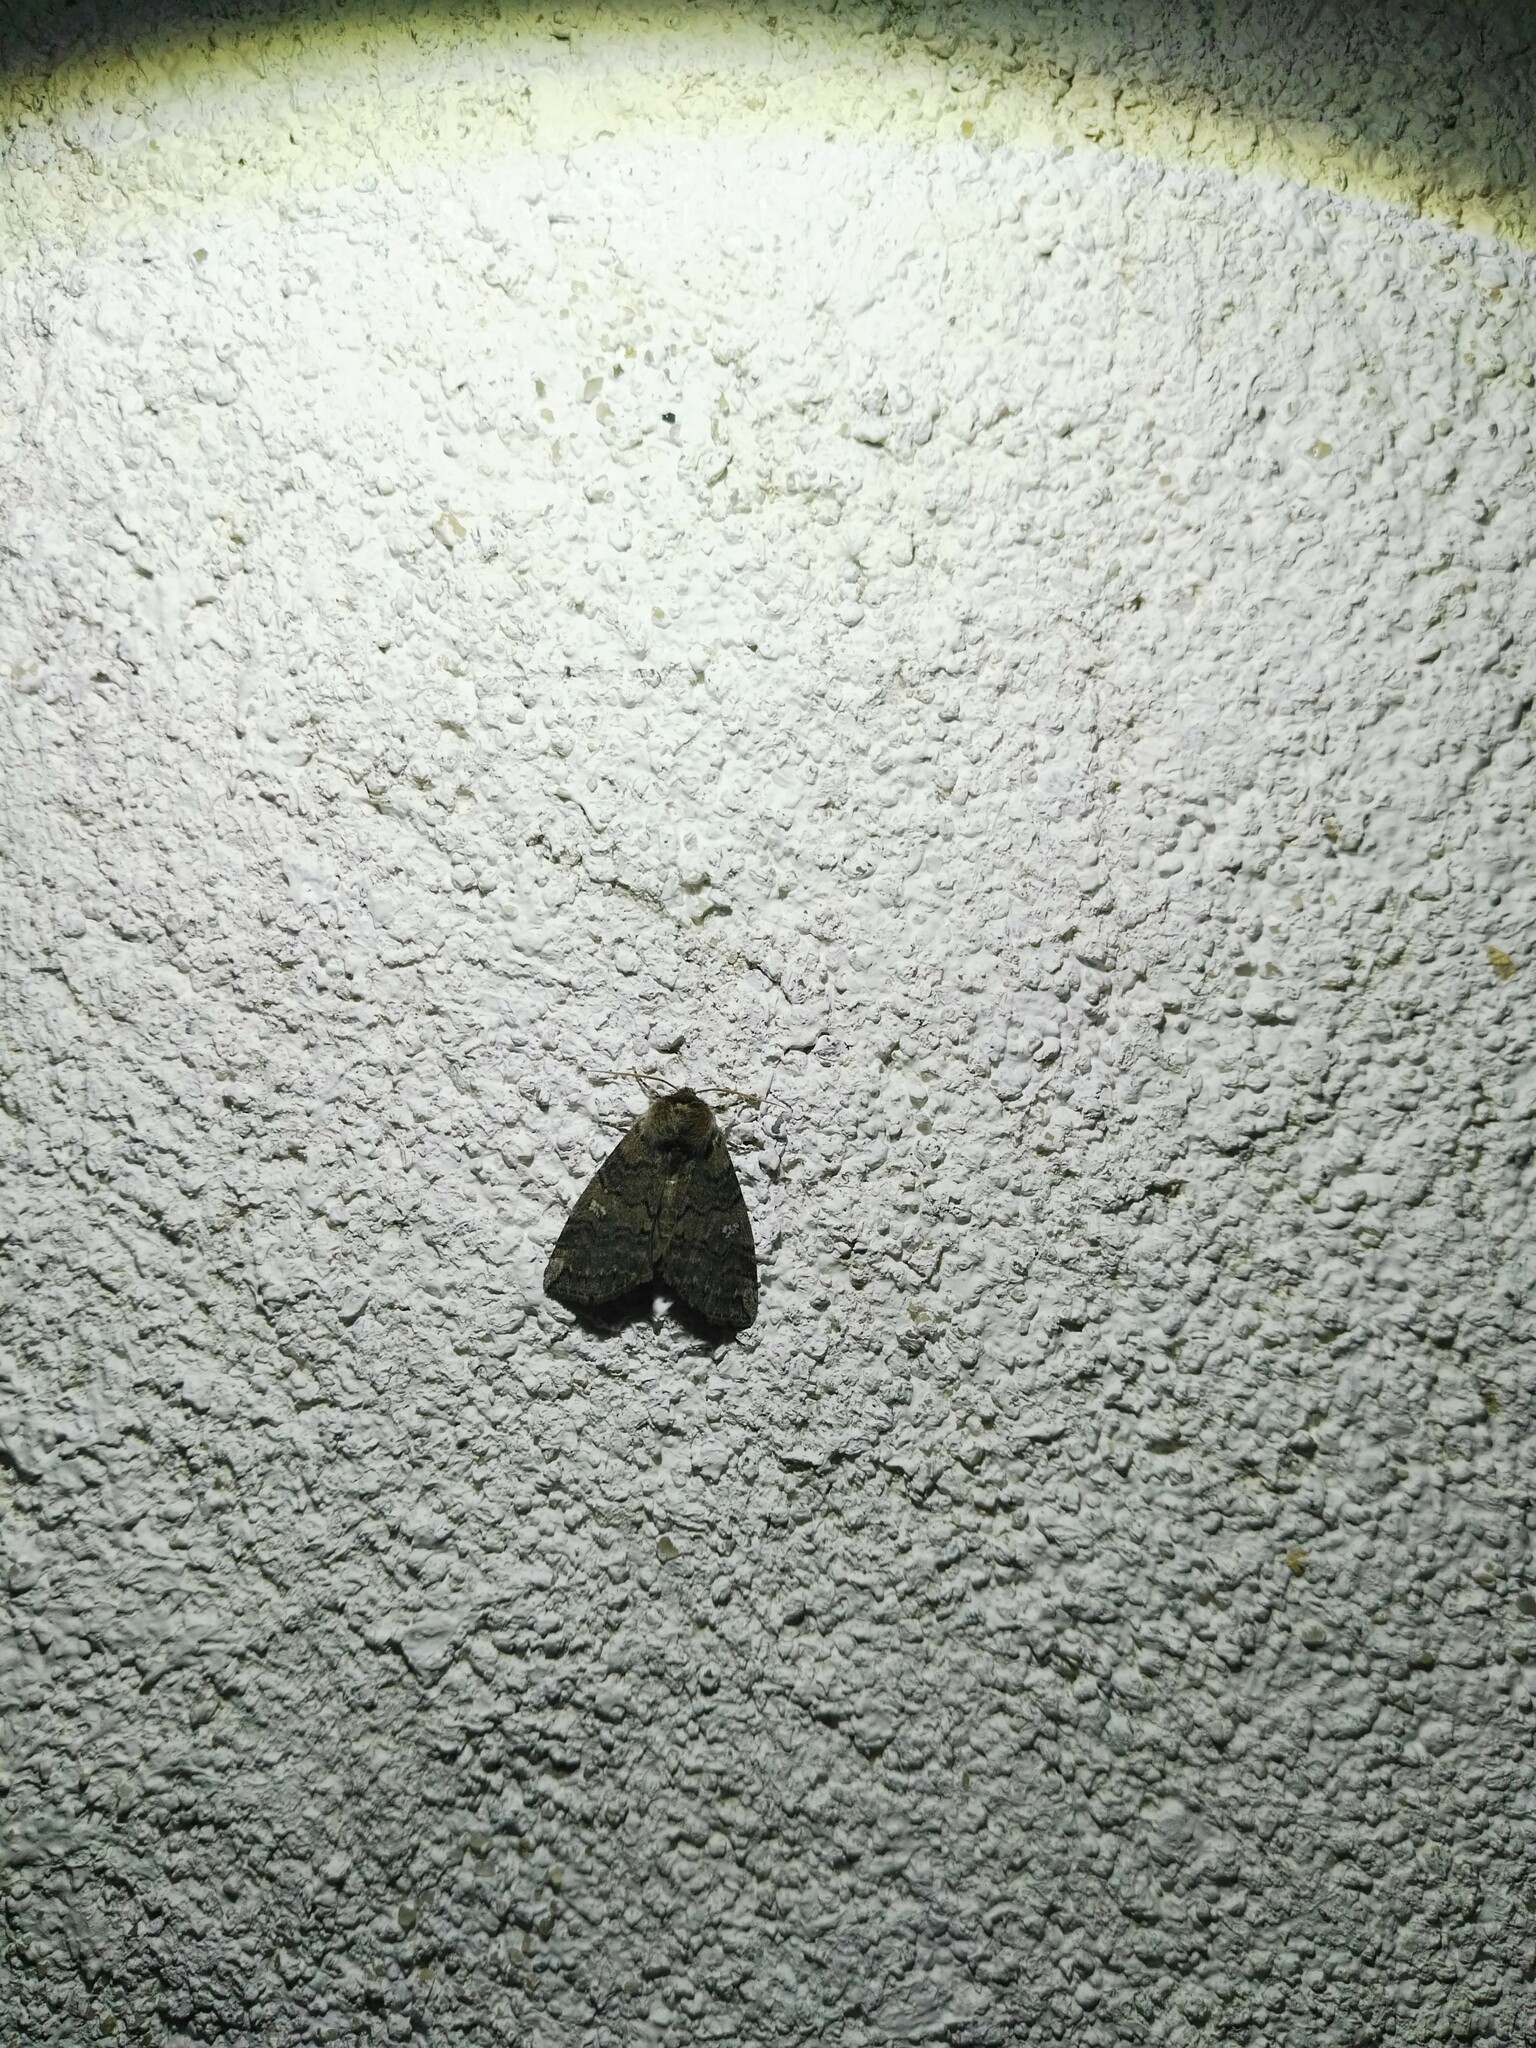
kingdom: Animalia
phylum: Arthropoda
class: Insecta
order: Lepidoptera
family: Drepanidae
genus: Tethea
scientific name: Tethea or
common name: Poplar lutestring
